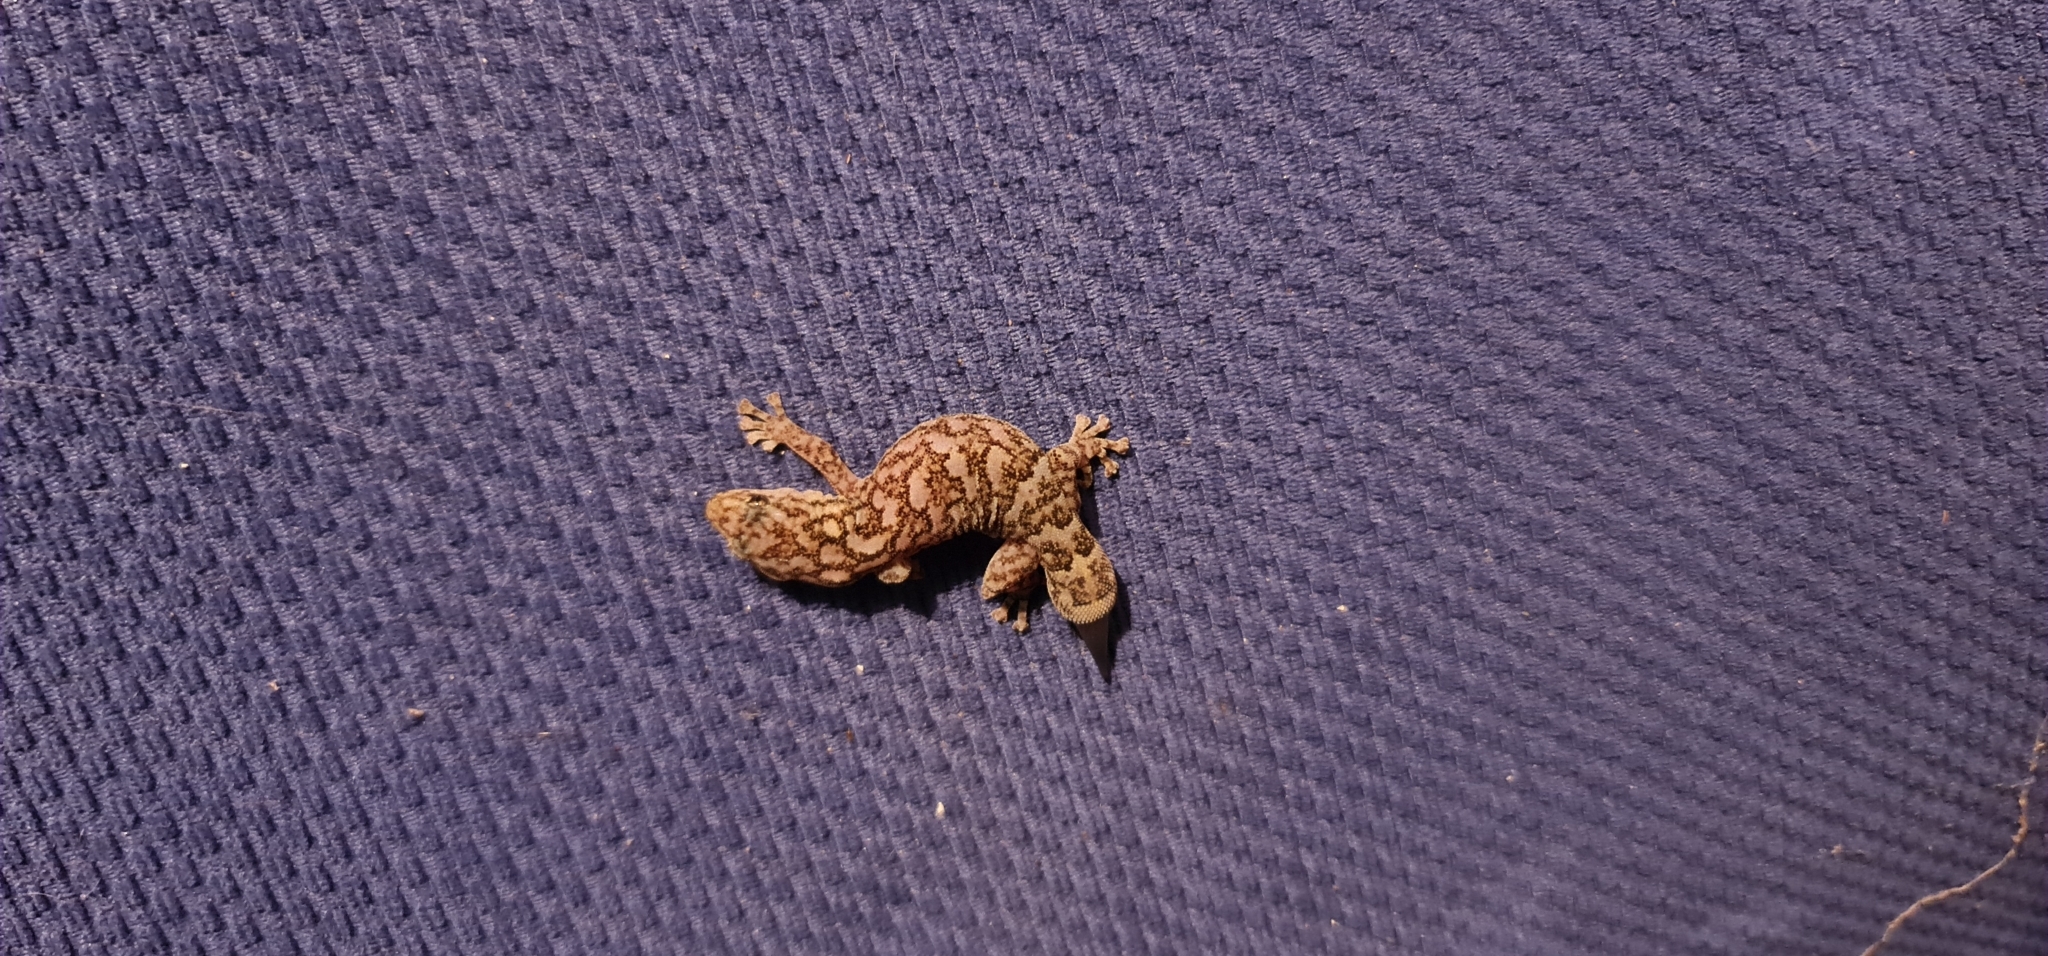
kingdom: Animalia
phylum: Chordata
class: Squamata
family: Gekkonidae
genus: Christinus
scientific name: Christinus marmoratus
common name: Marbled gecko
